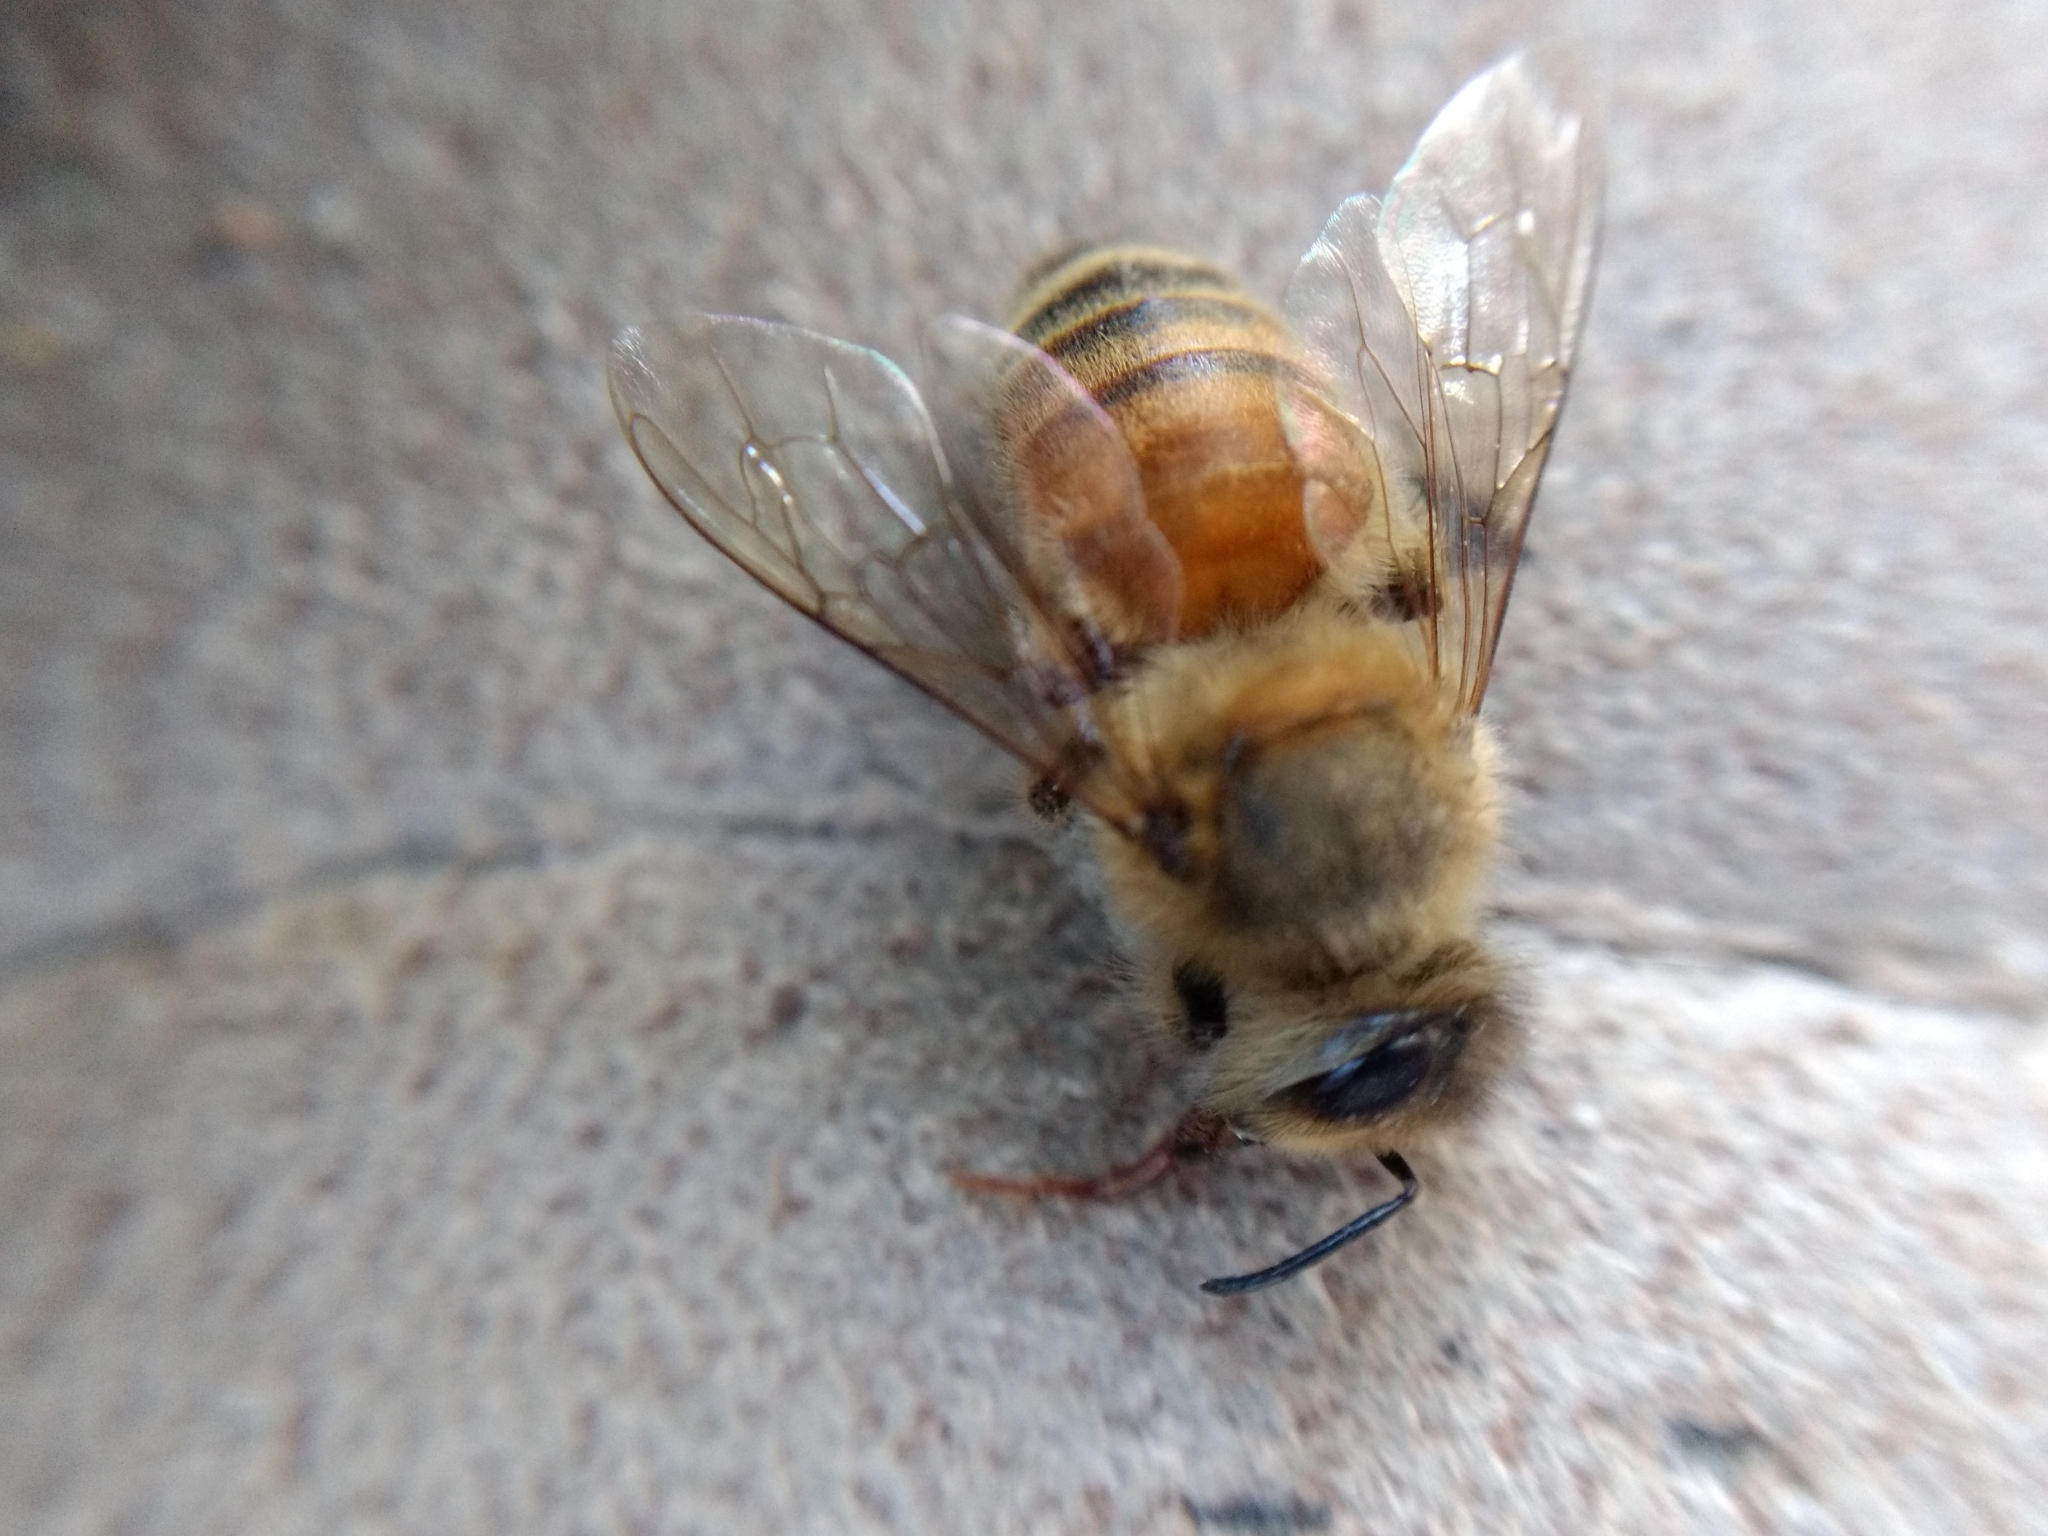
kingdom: Animalia
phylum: Arthropoda
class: Insecta
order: Hymenoptera
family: Apidae
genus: Apis
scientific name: Apis mellifera
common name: Honey bee
